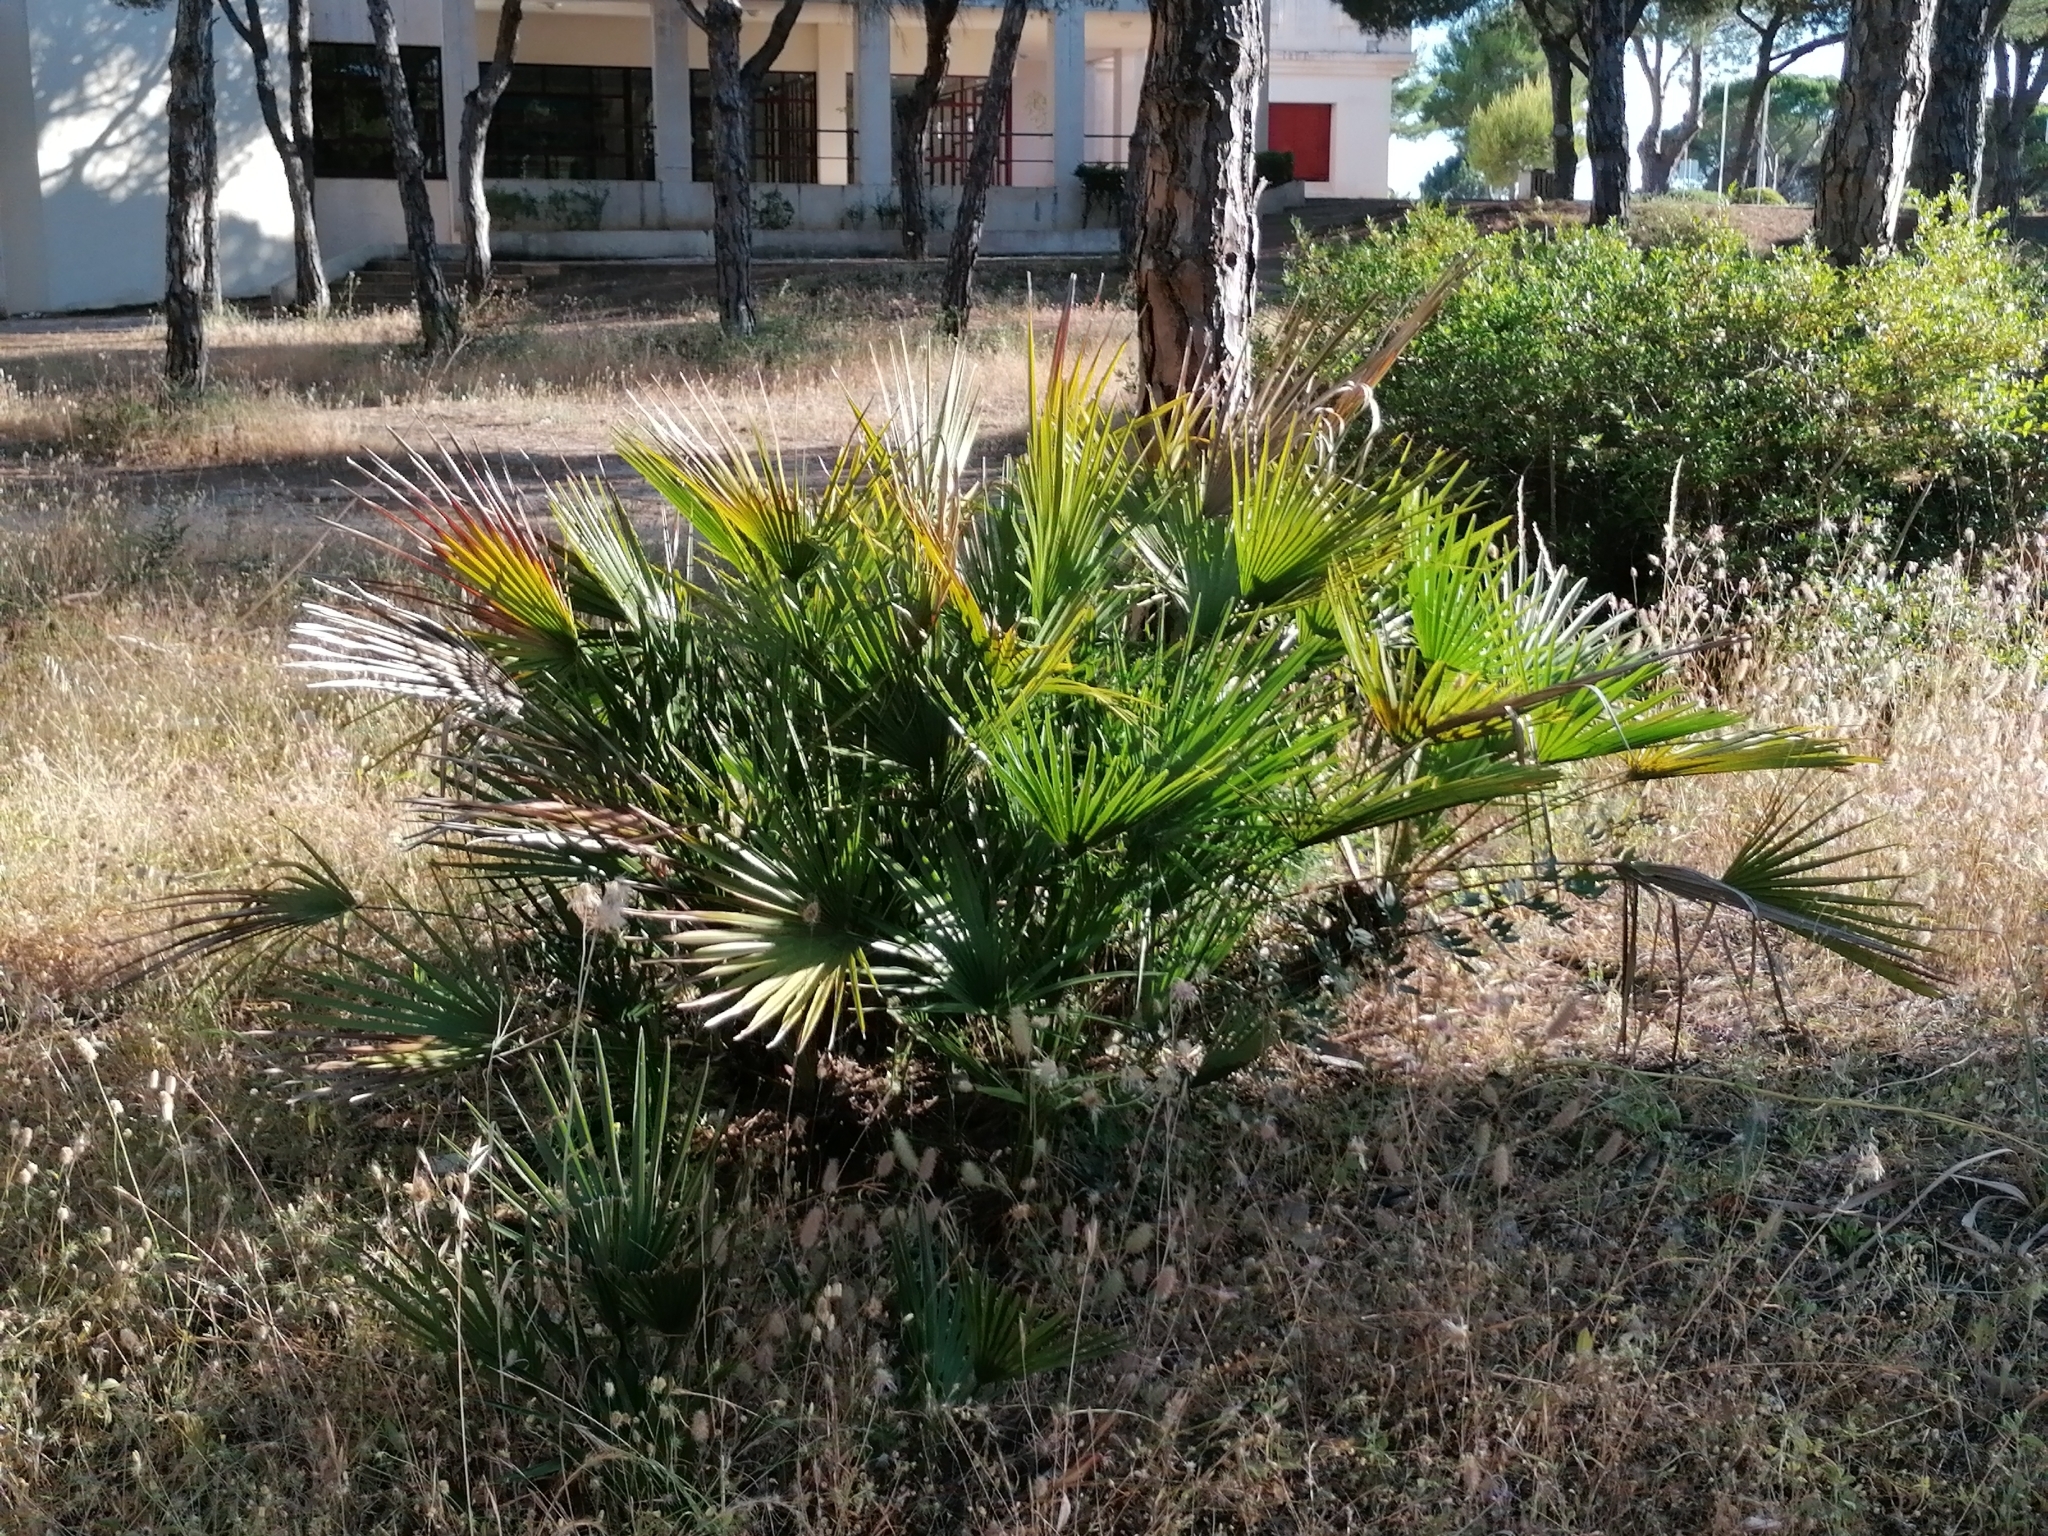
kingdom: Plantae
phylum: Tracheophyta
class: Liliopsida
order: Arecales
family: Arecaceae
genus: Chamaerops
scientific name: Chamaerops humilis
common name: Dwarf fan palm
